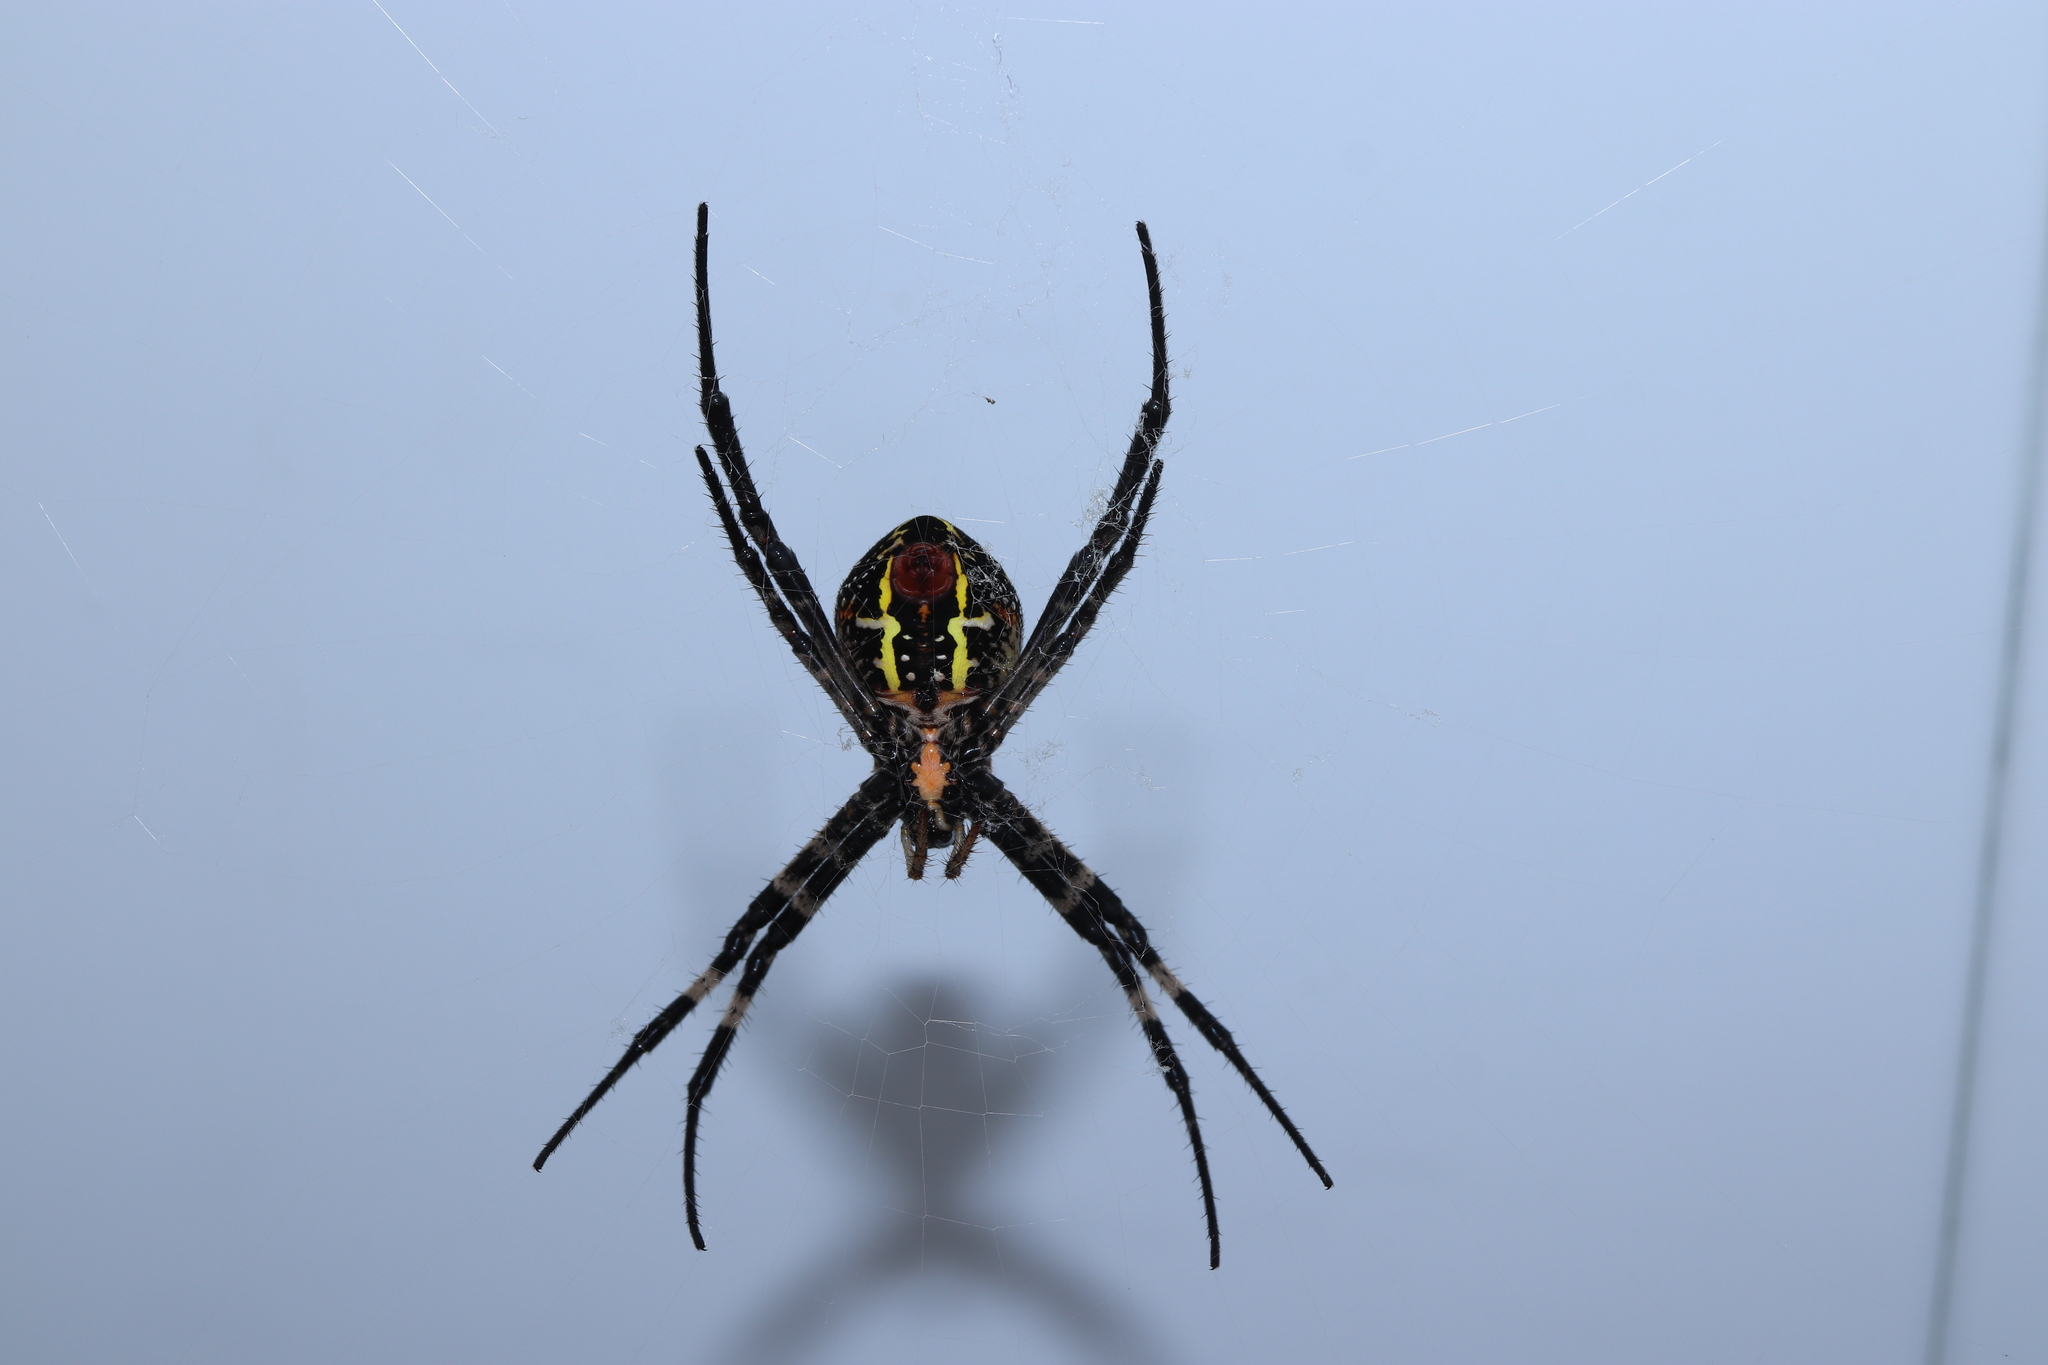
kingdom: Animalia
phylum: Arthropoda
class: Arachnida
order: Araneae
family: Araneidae
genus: Argiope
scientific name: Argiope amoena
